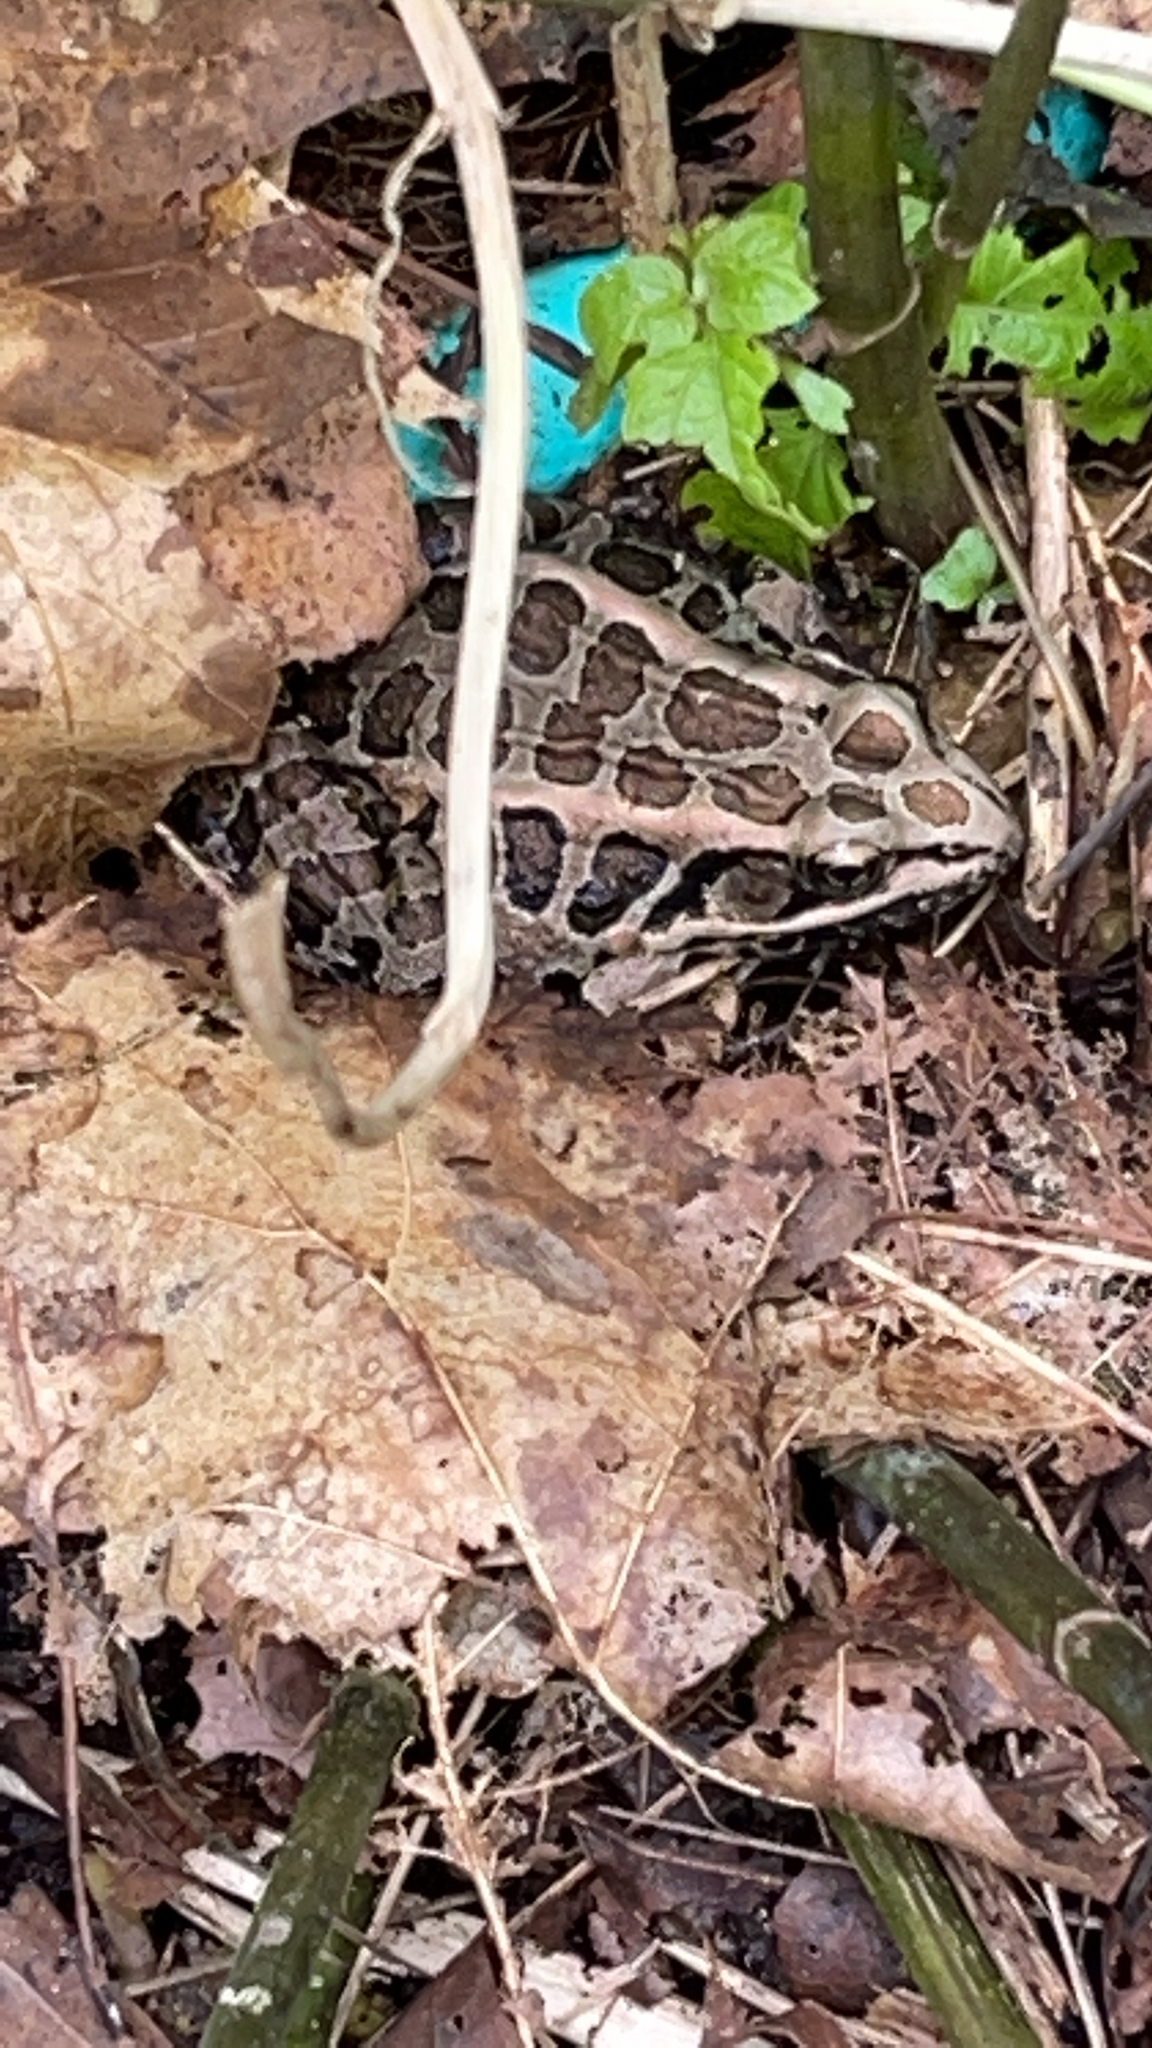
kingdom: Animalia
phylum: Chordata
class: Amphibia
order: Anura
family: Ranidae
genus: Lithobates
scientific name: Lithobates palustris
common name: Pickerel frog
